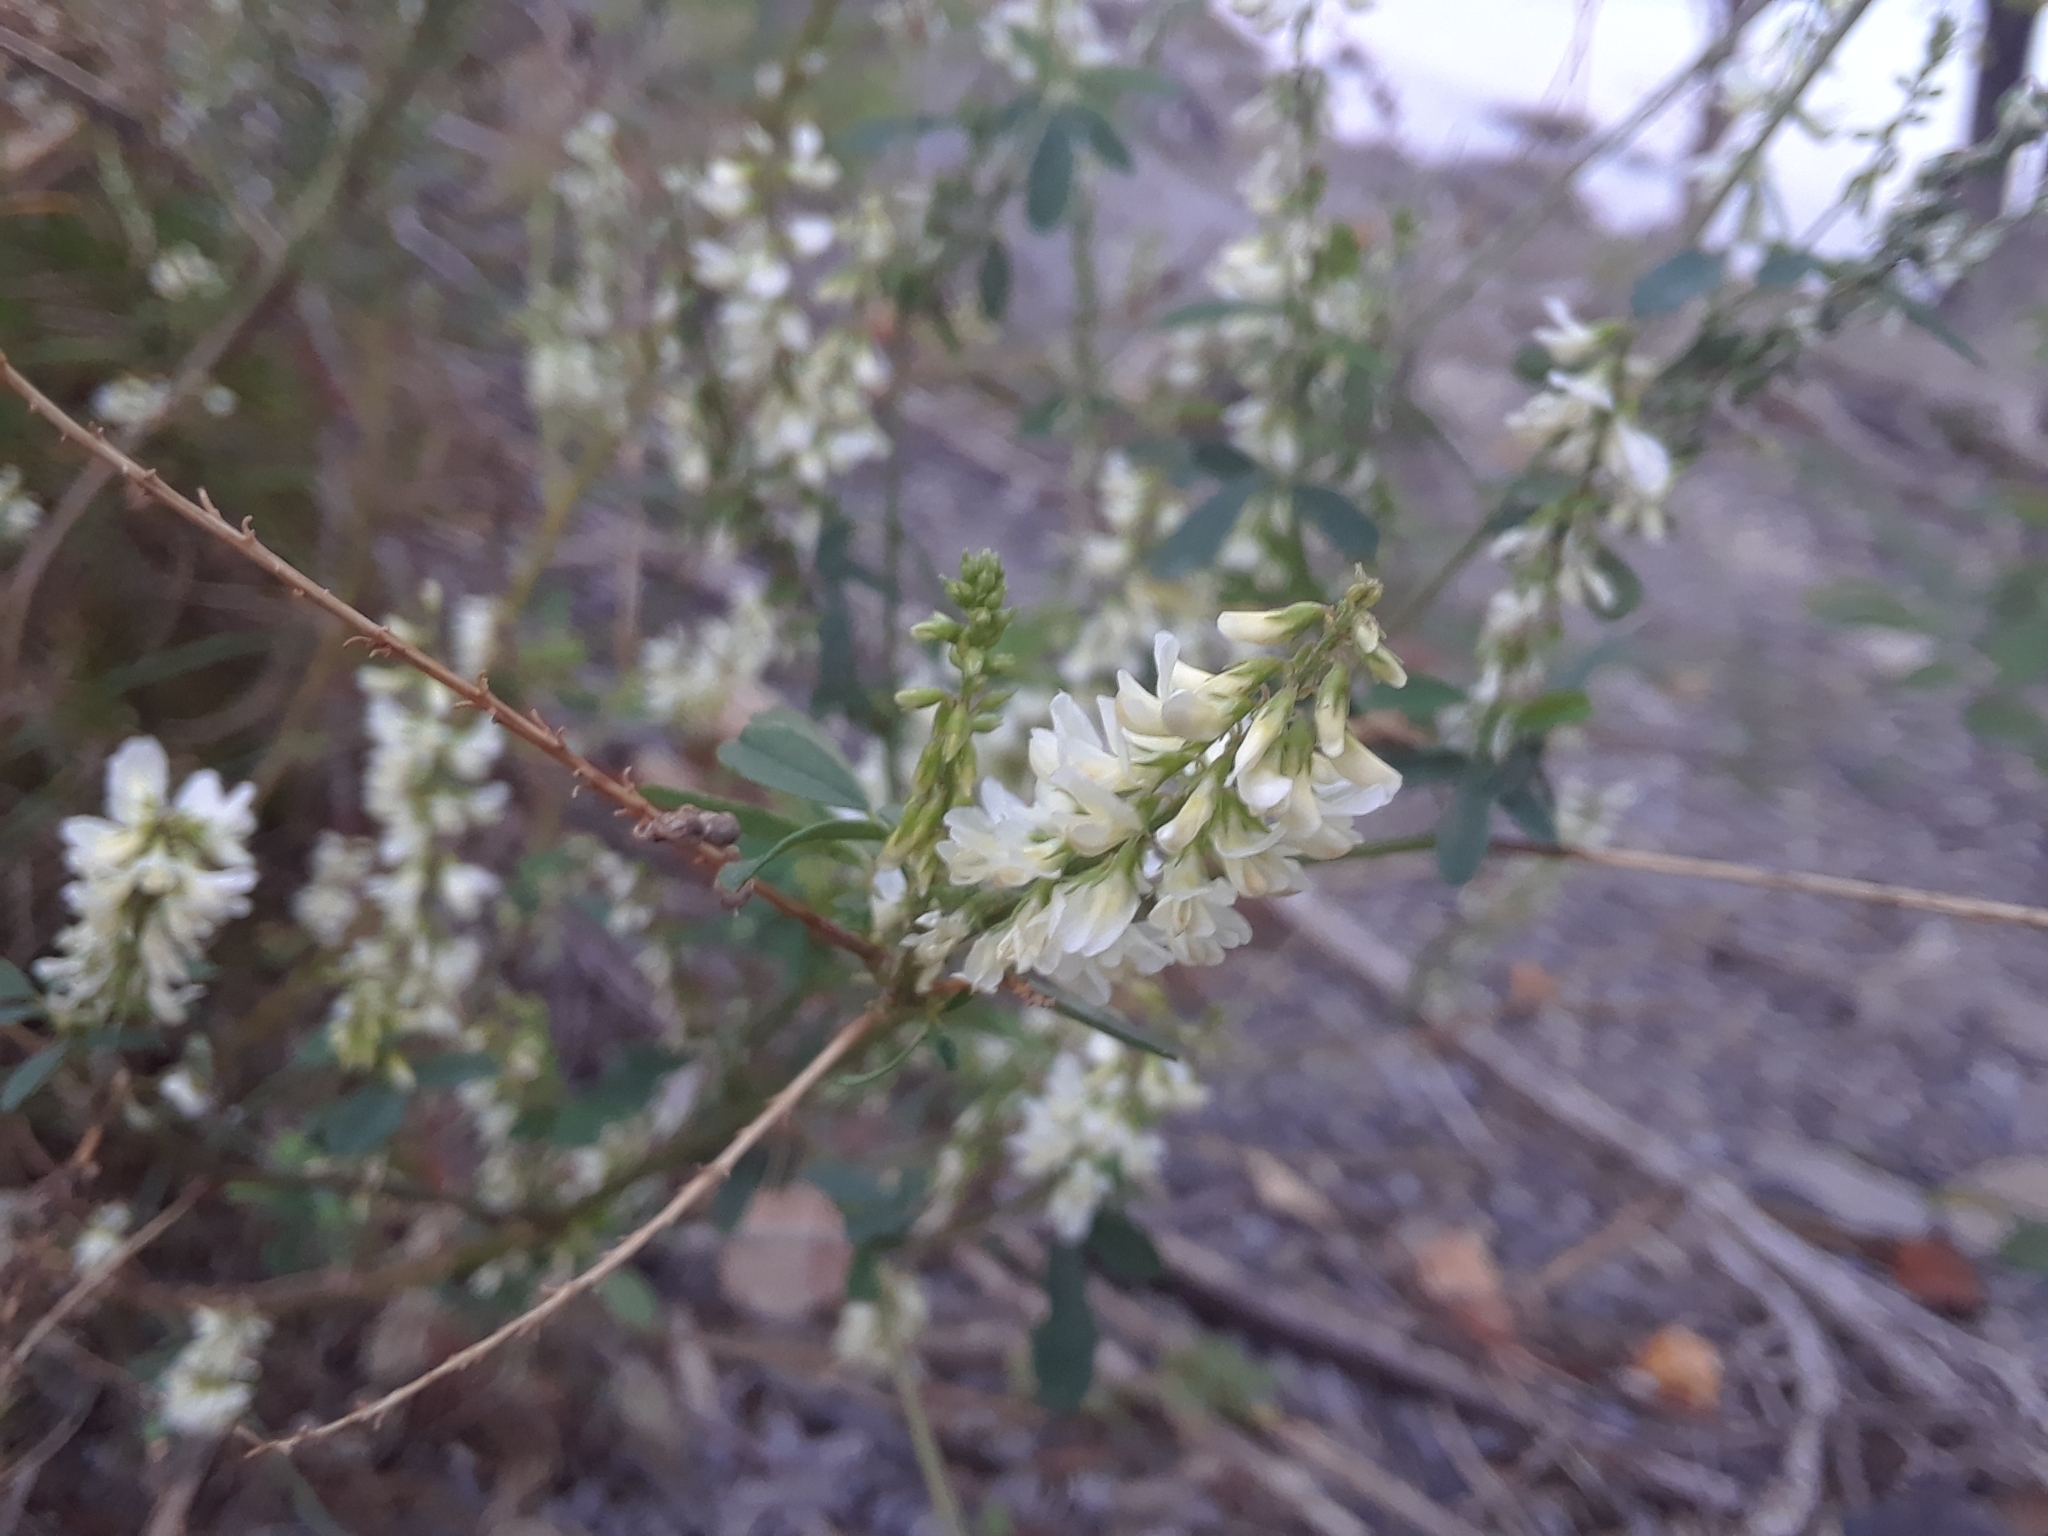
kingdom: Plantae
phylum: Tracheophyta
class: Magnoliopsida
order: Fabales
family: Fabaceae
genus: Melilotus
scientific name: Melilotus albus
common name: White melilot
